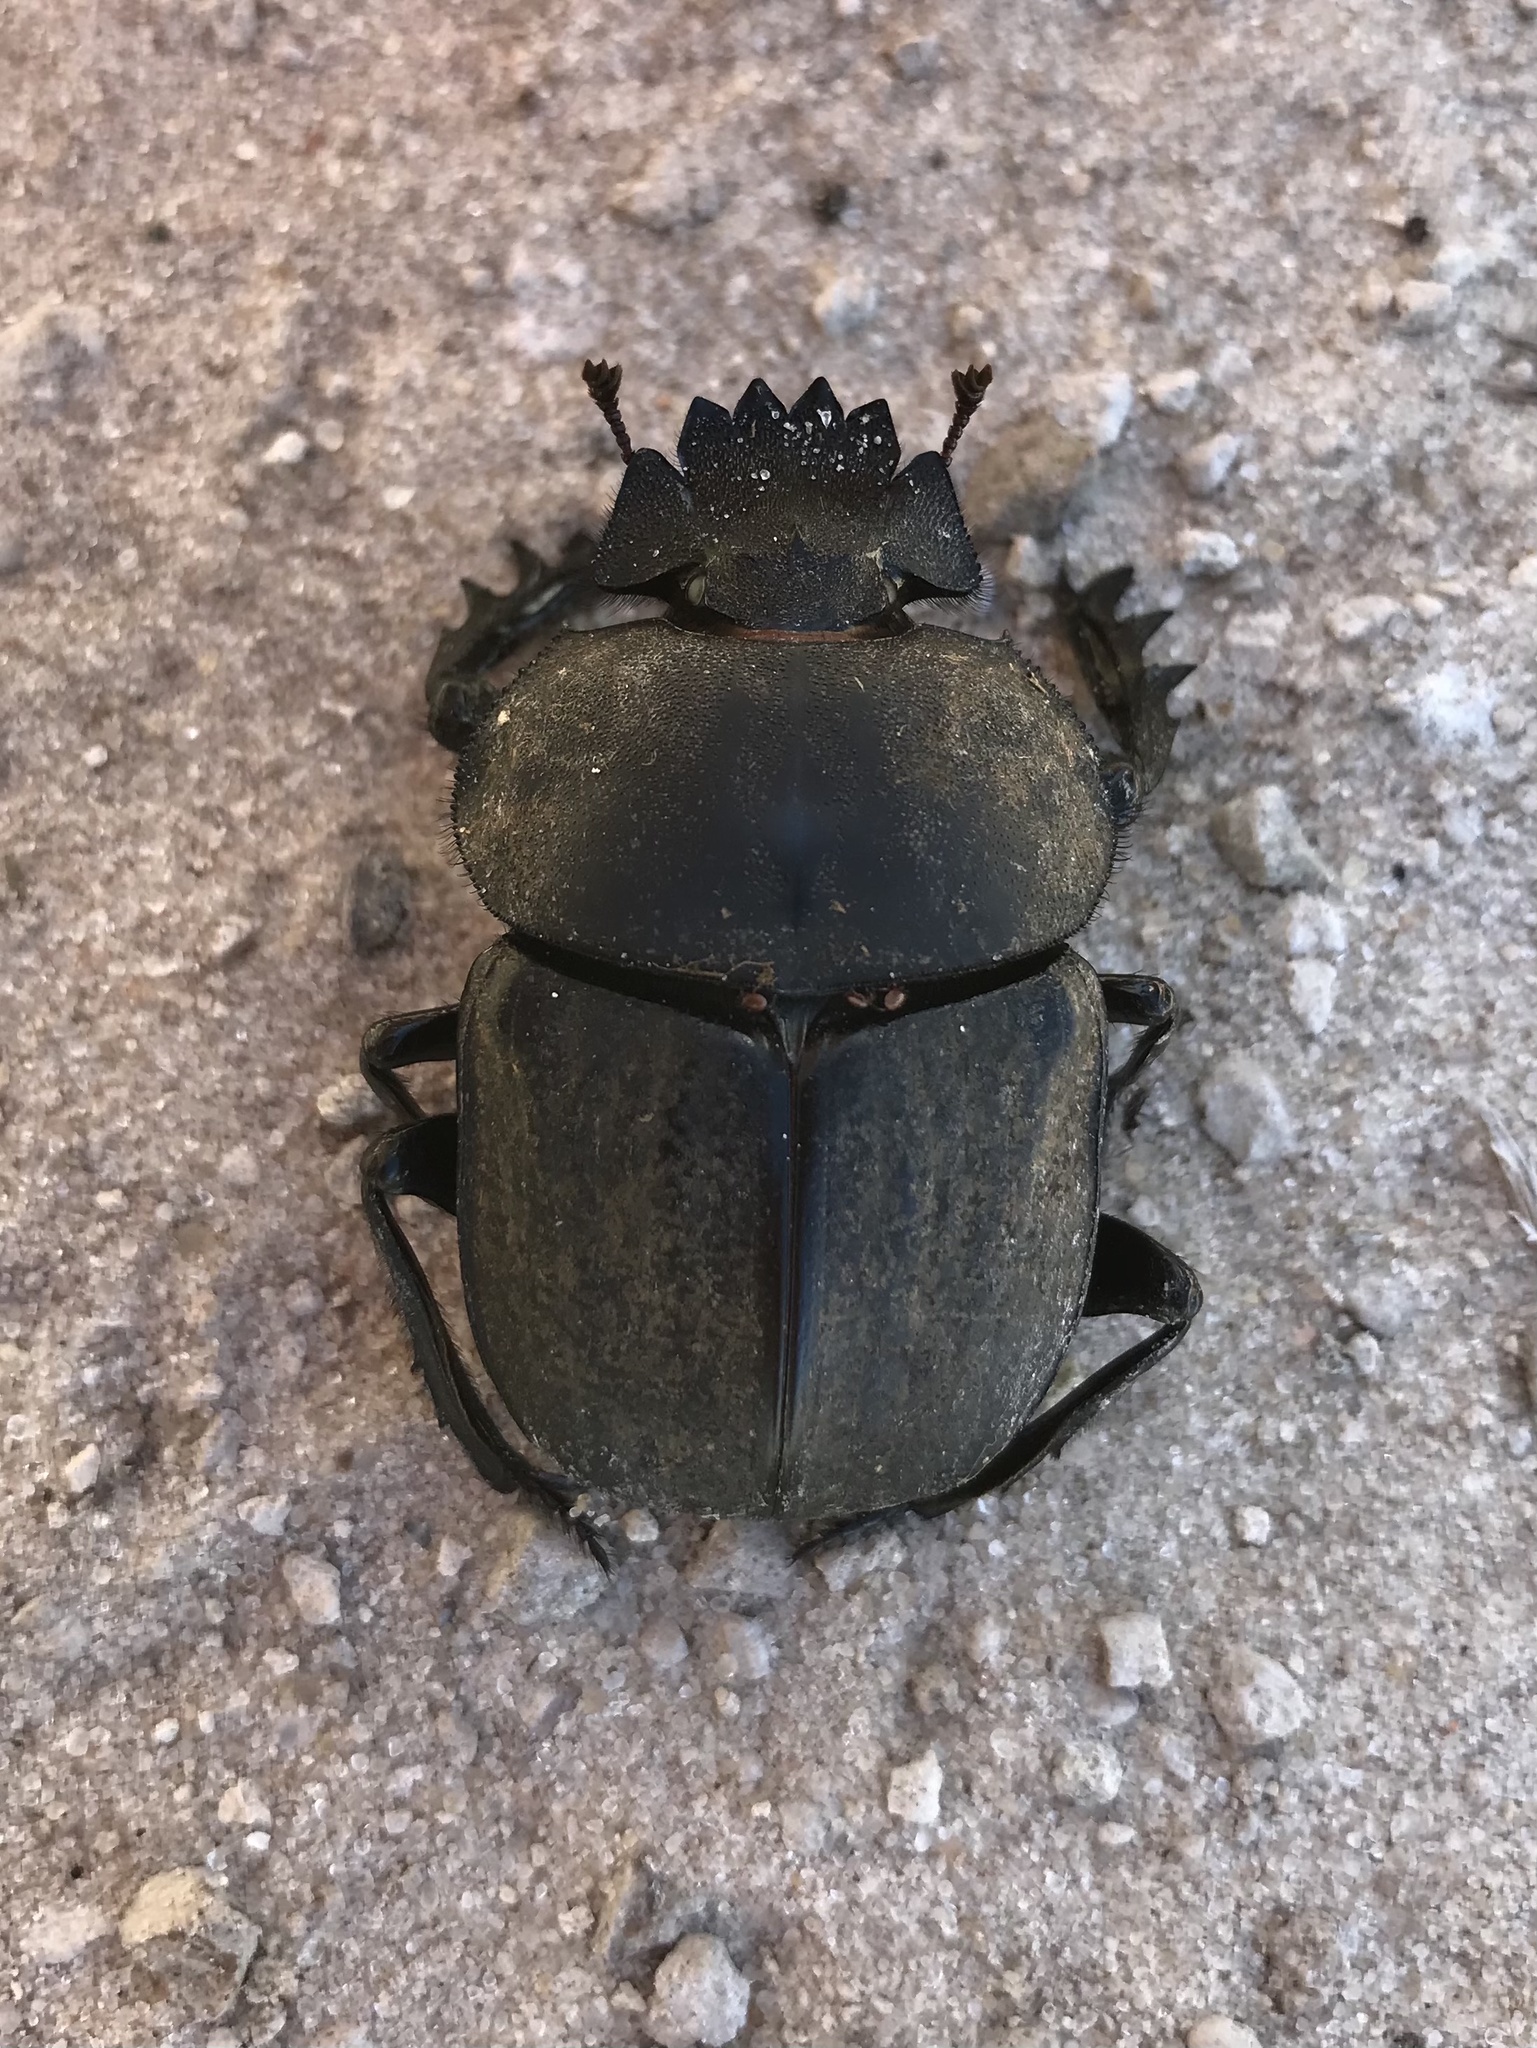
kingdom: Animalia
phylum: Arthropoda
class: Insecta
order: Coleoptera
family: Scarabaeidae
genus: Kheper
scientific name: Kheper lamarcki
